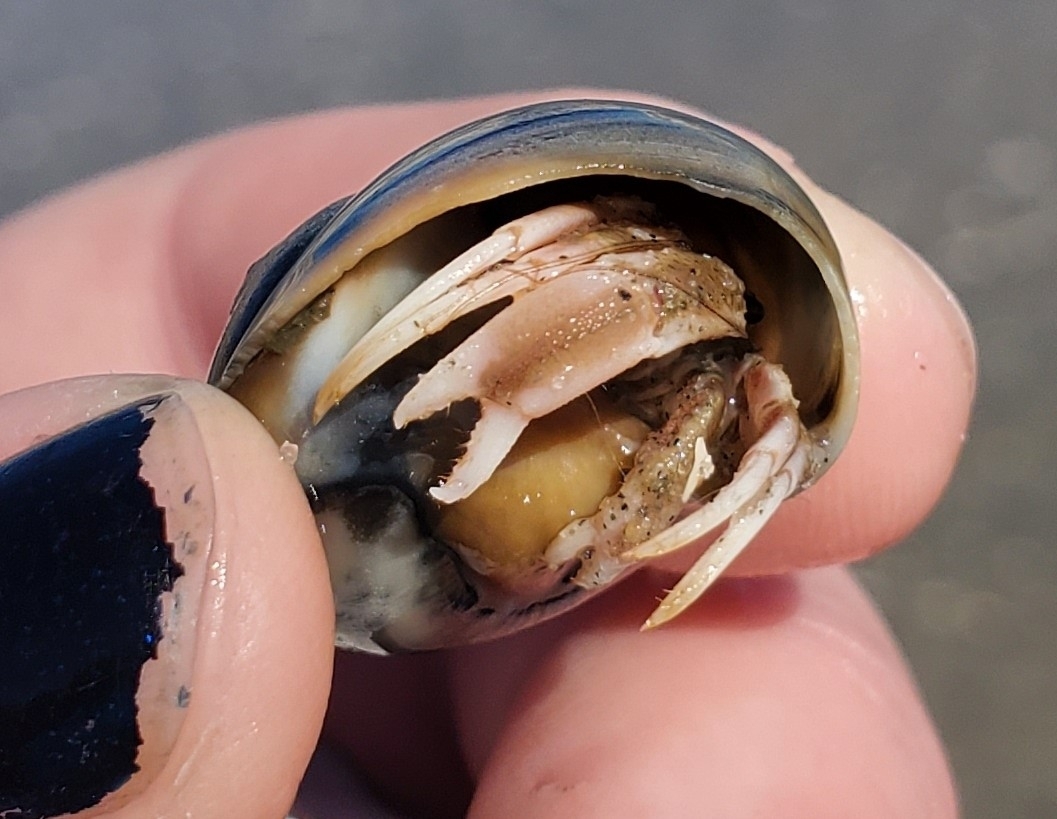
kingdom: Animalia
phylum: Arthropoda
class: Malacostraca
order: Decapoda
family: Paguridae
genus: Pagurus
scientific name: Pagurus longicarpus
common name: Long-armed hermit crab
